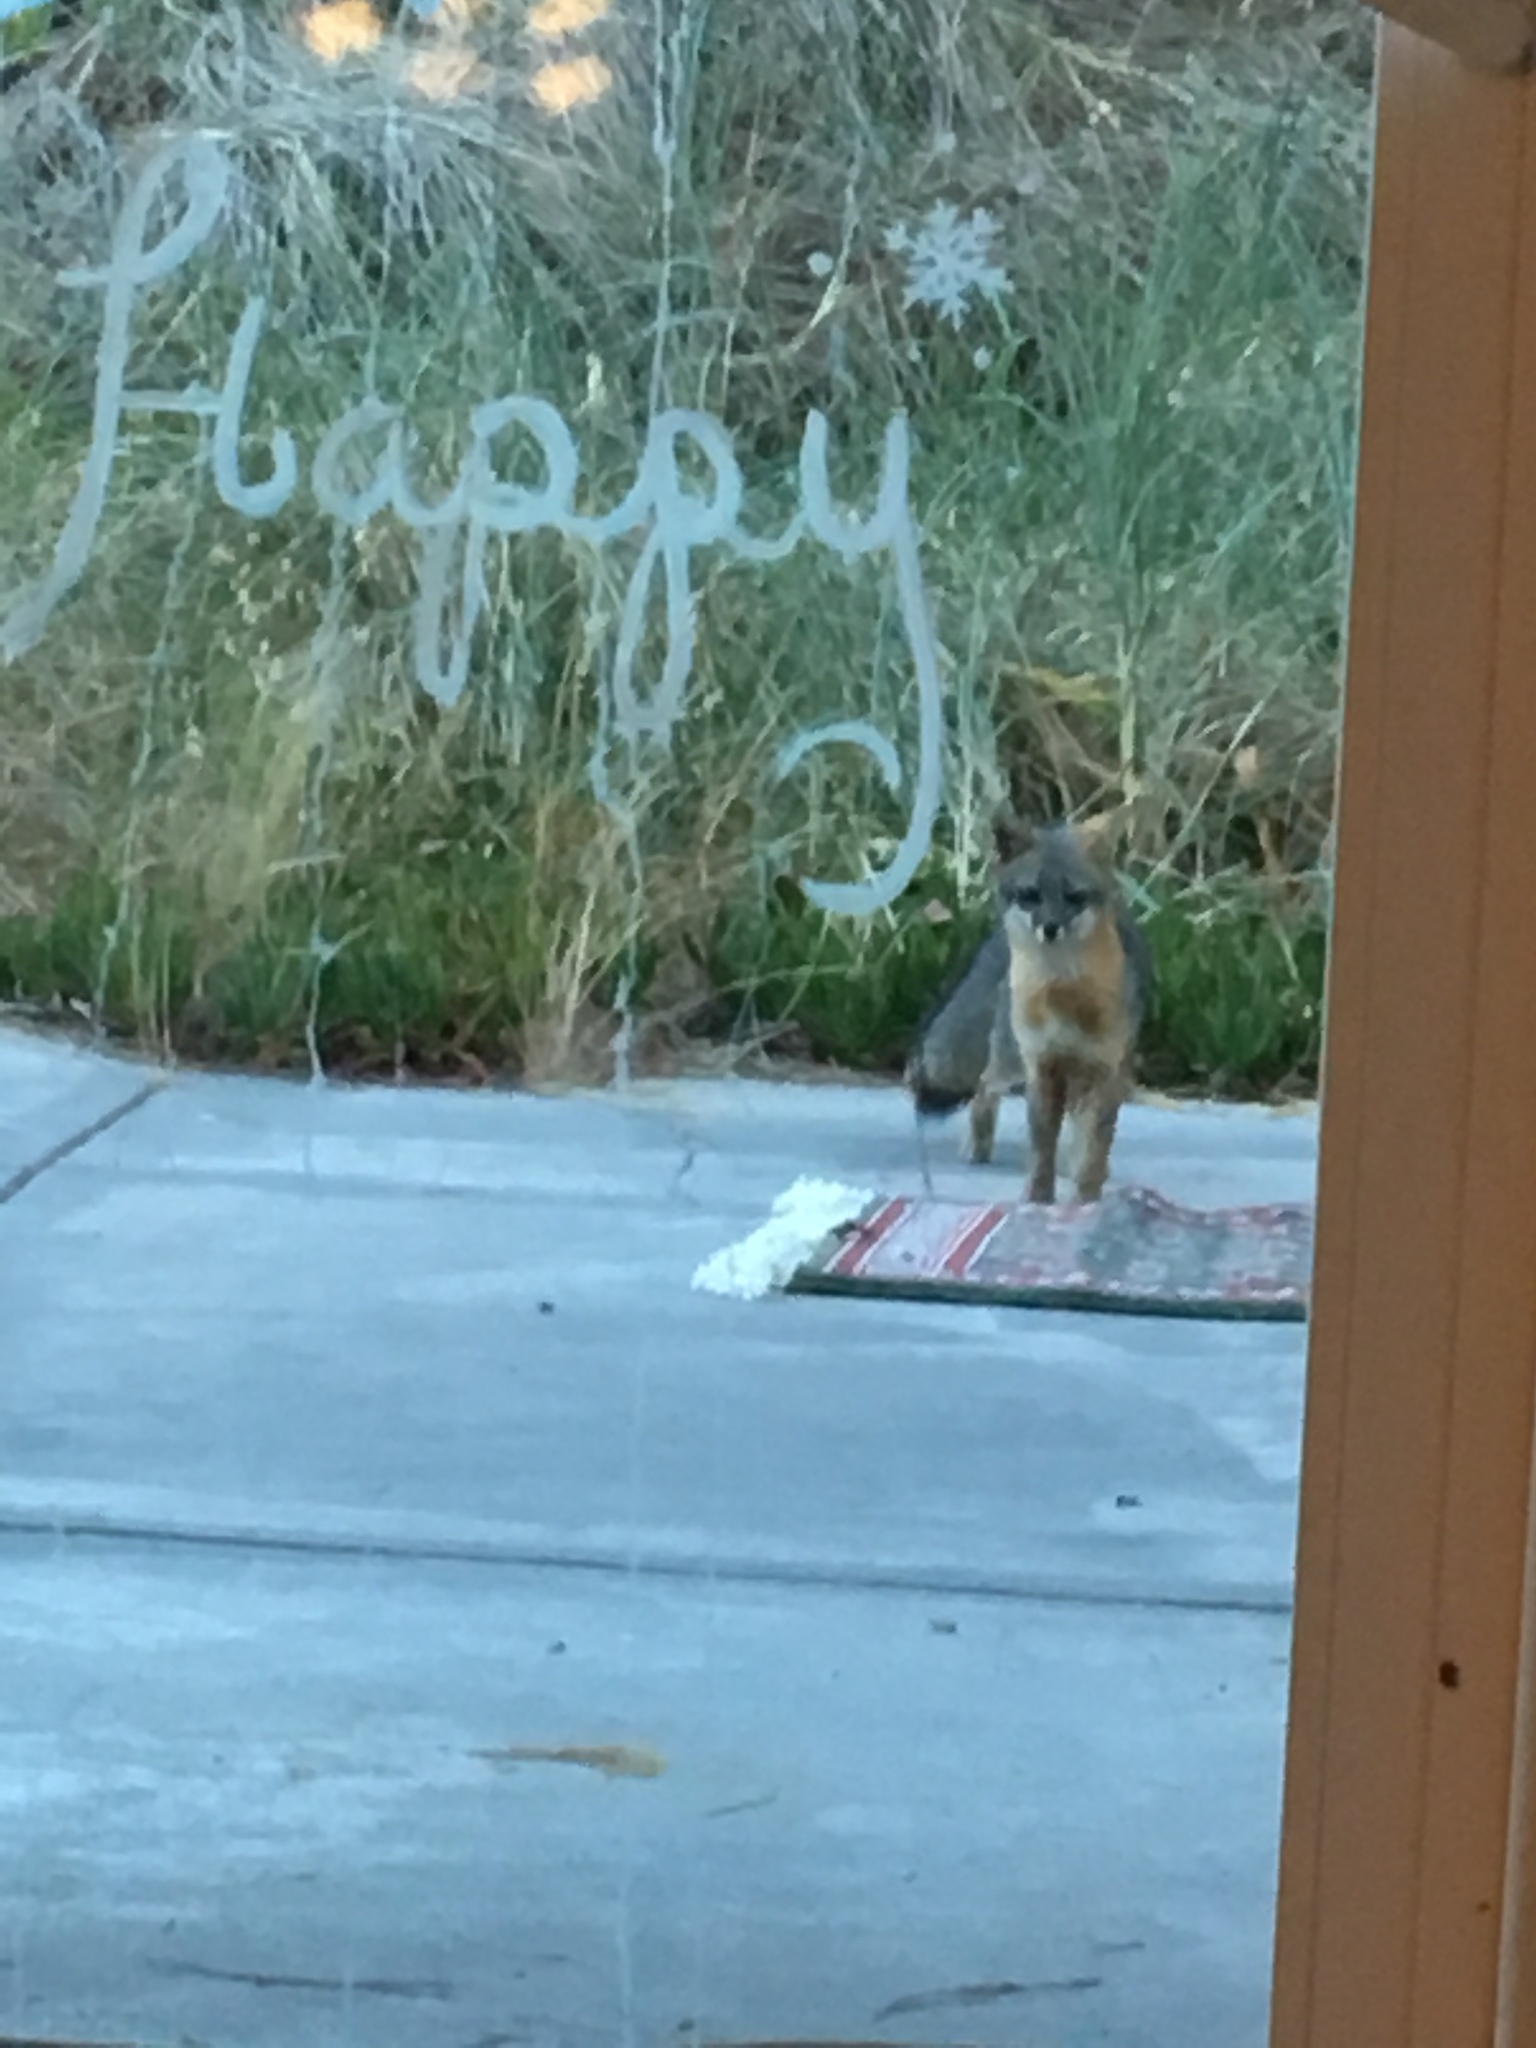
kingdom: Animalia
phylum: Chordata
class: Mammalia
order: Carnivora
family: Canidae
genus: Urocyon
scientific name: Urocyon cinereoargenteus
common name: Gray fox
